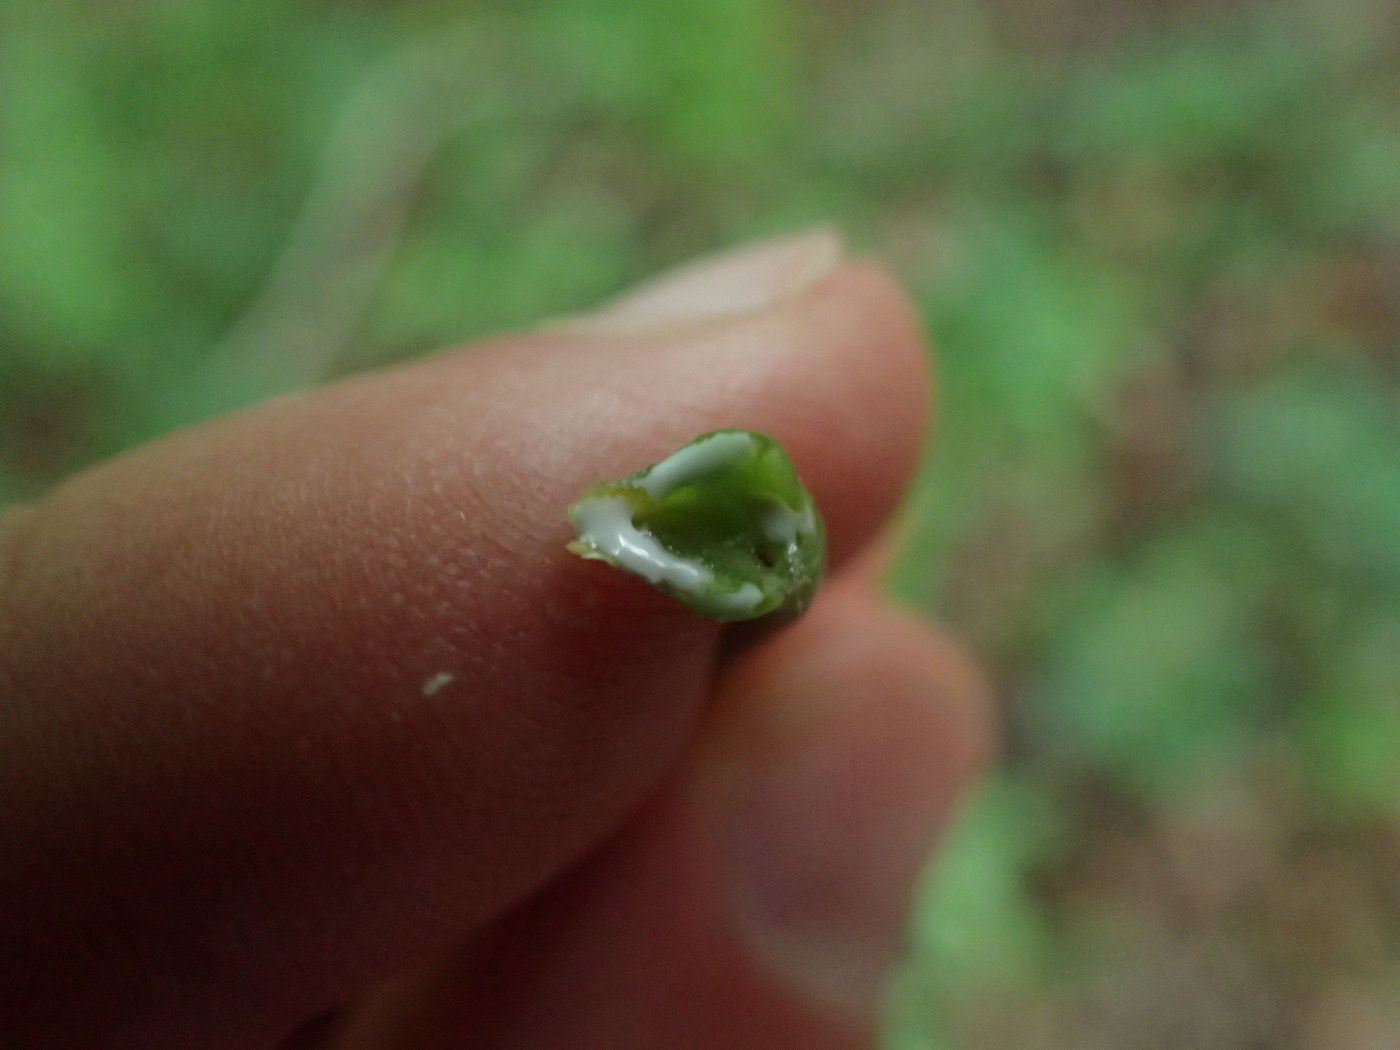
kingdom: Plantae
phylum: Tracheophyta
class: Magnoliopsida
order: Sapindales
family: Sapindaceae
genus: Acer
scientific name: Acer platanoides
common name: Norway maple
